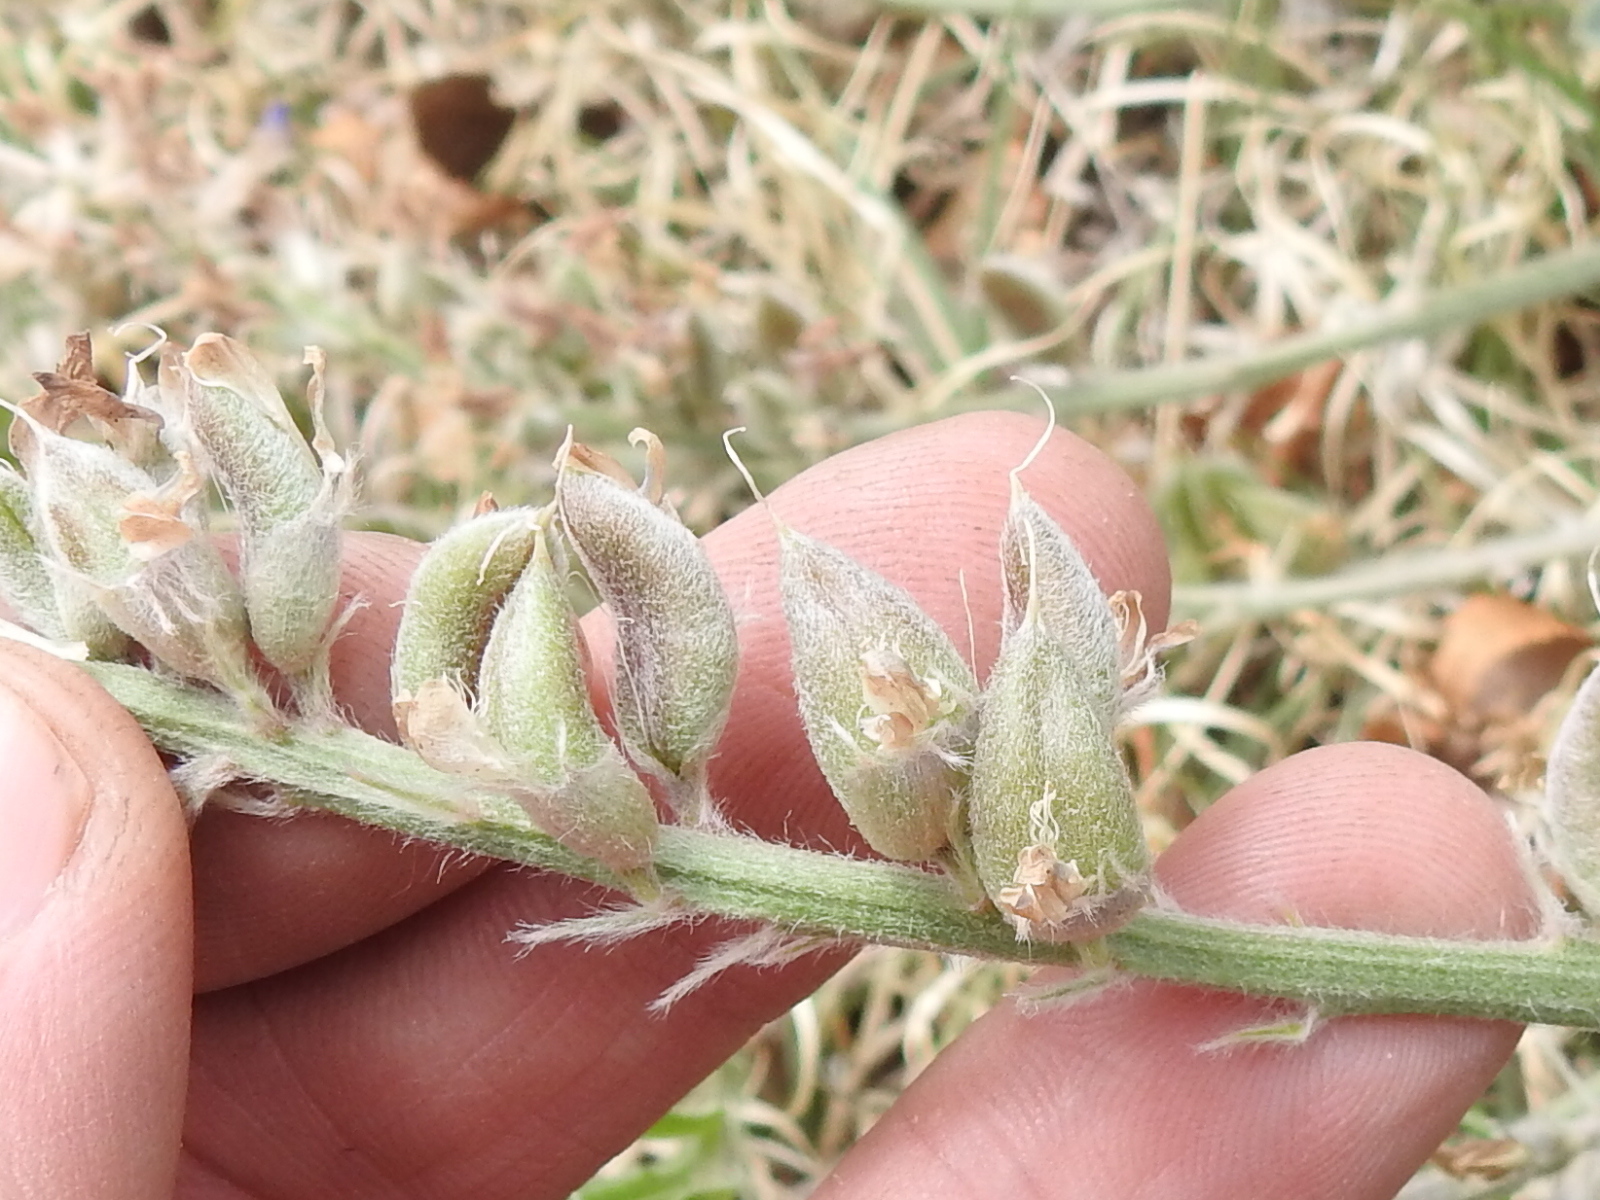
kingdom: Plantae
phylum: Tracheophyta
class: Magnoliopsida
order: Fabales
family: Fabaceae
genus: Astragalus
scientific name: Astragalus mollissimus
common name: Woolly locoweed
